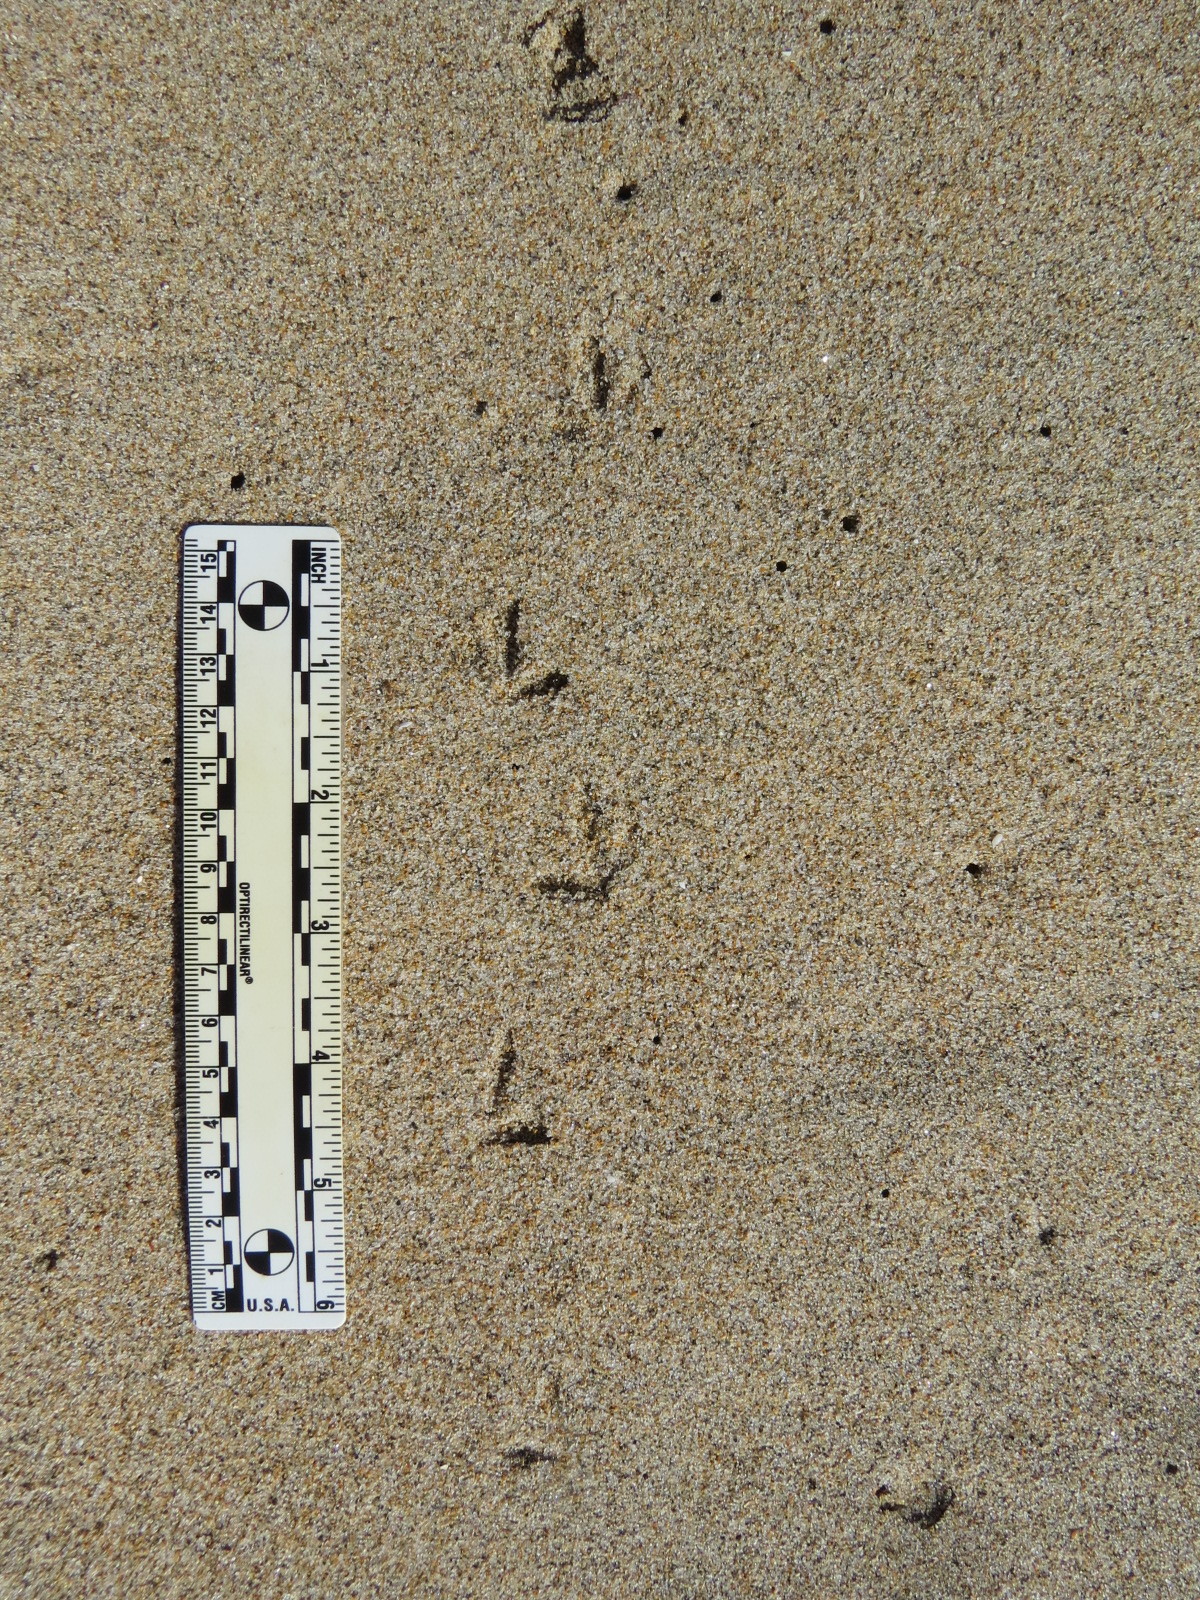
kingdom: Animalia
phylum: Chordata
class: Aves
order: Charadriiformes
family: Charadriidae
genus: Anarhynchus
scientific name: Anarhynchus
